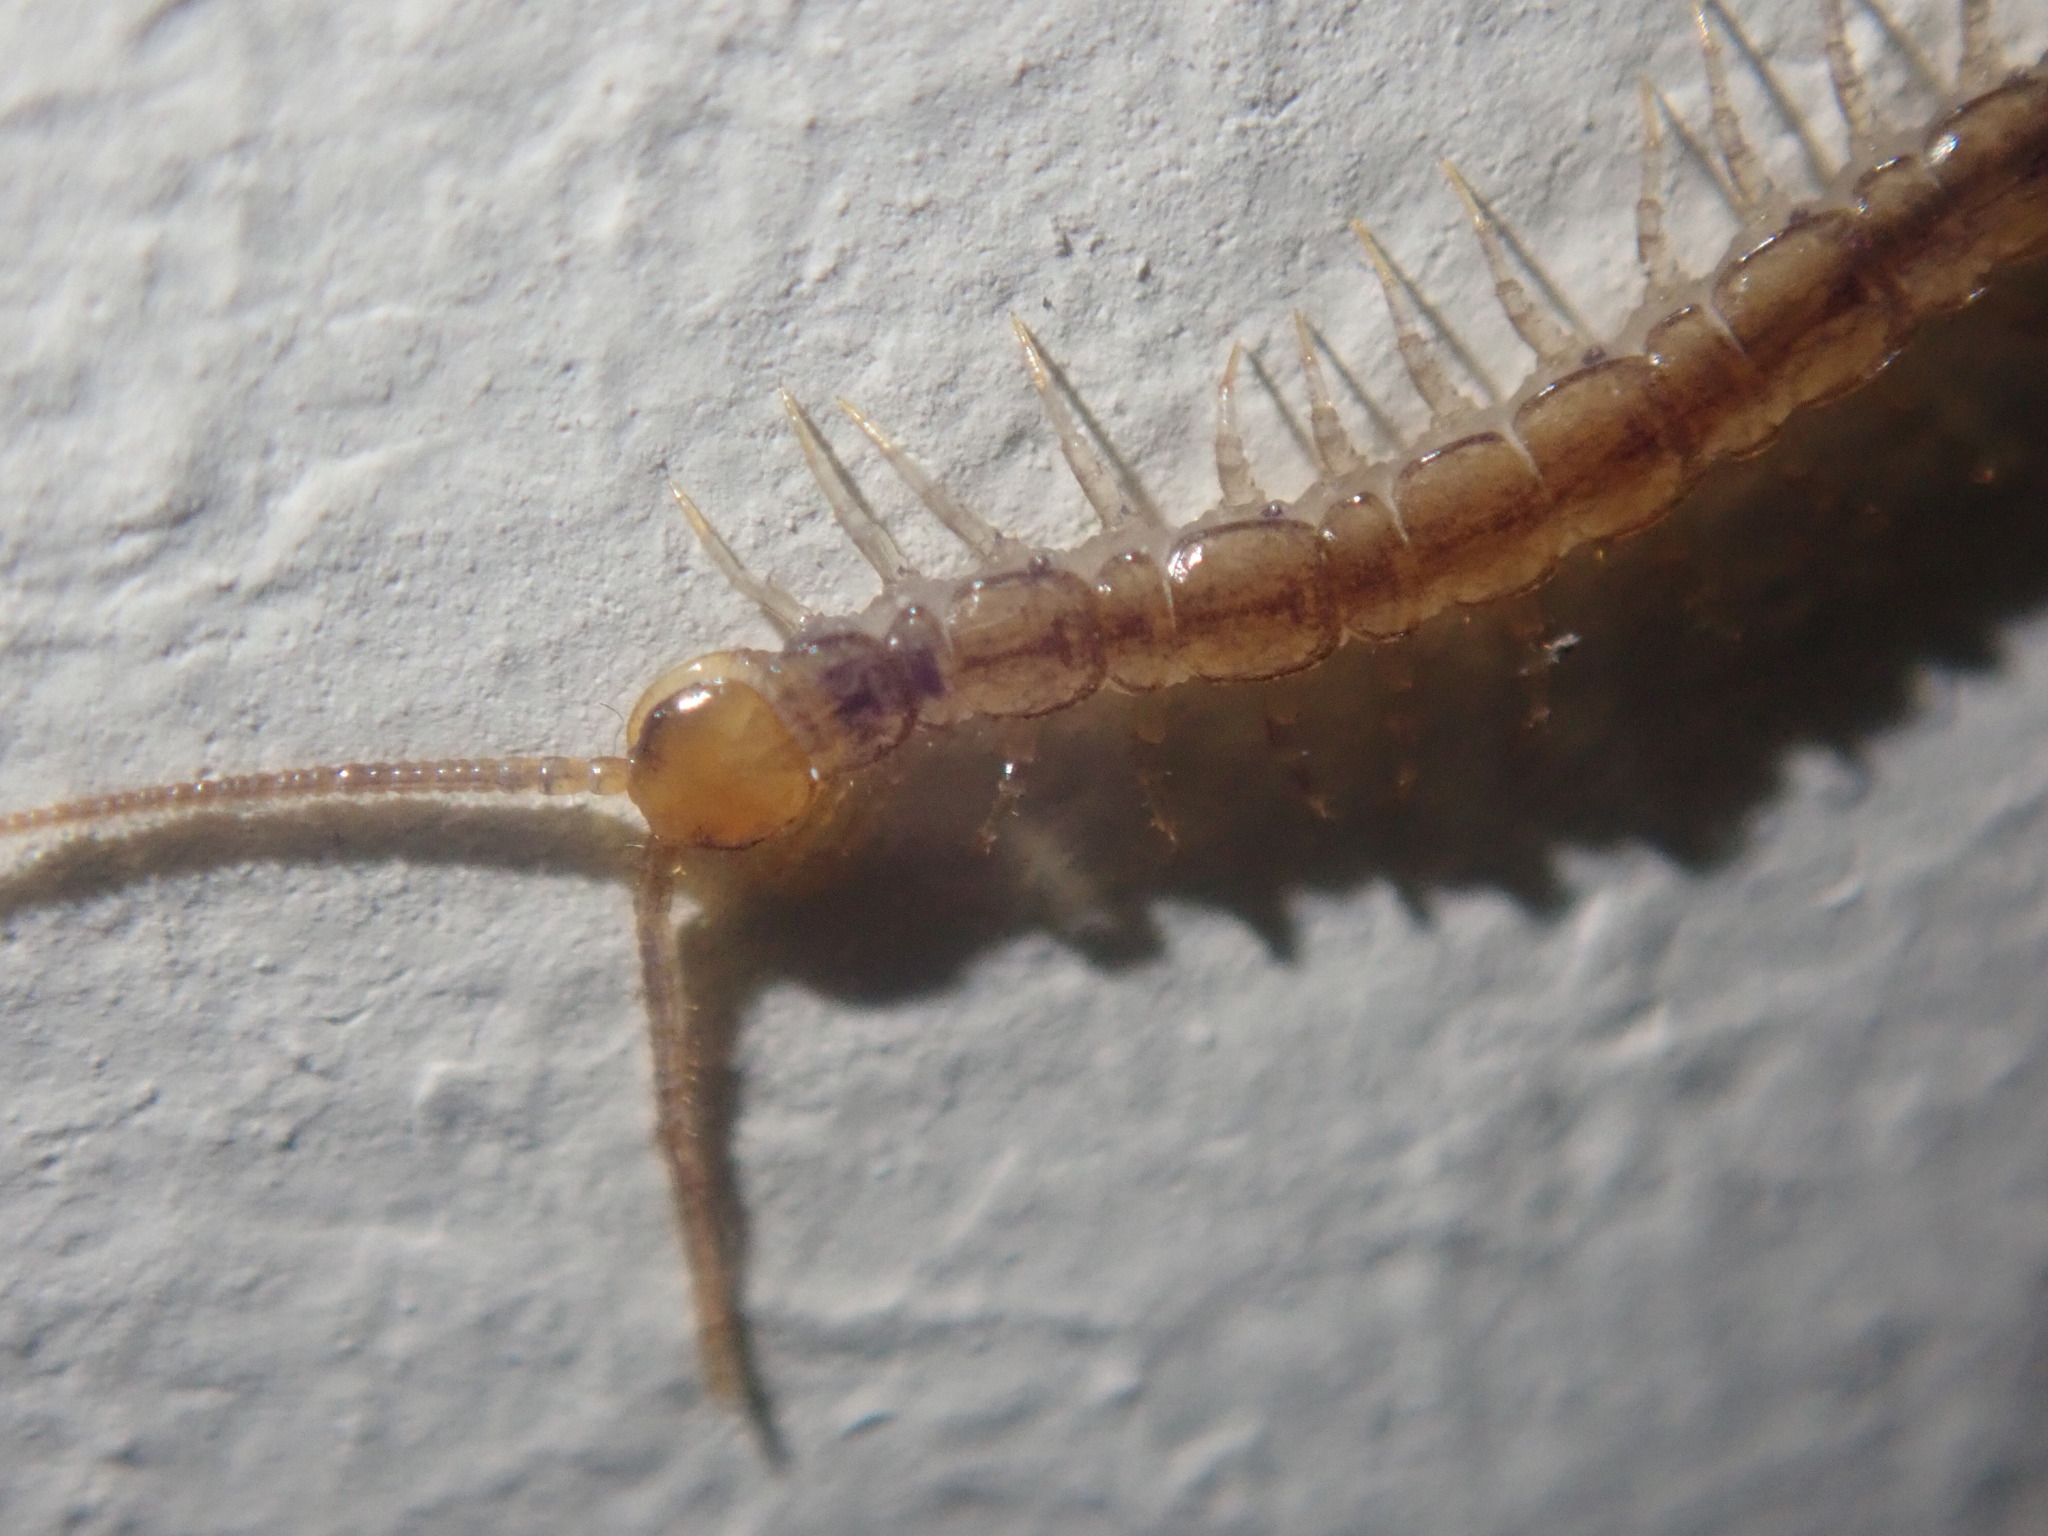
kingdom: Animalia
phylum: Arthropoda
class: Chilopoda
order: Lithobiomorpha
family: Lithobiidae
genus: Lithobius
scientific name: Lithobius melanops
